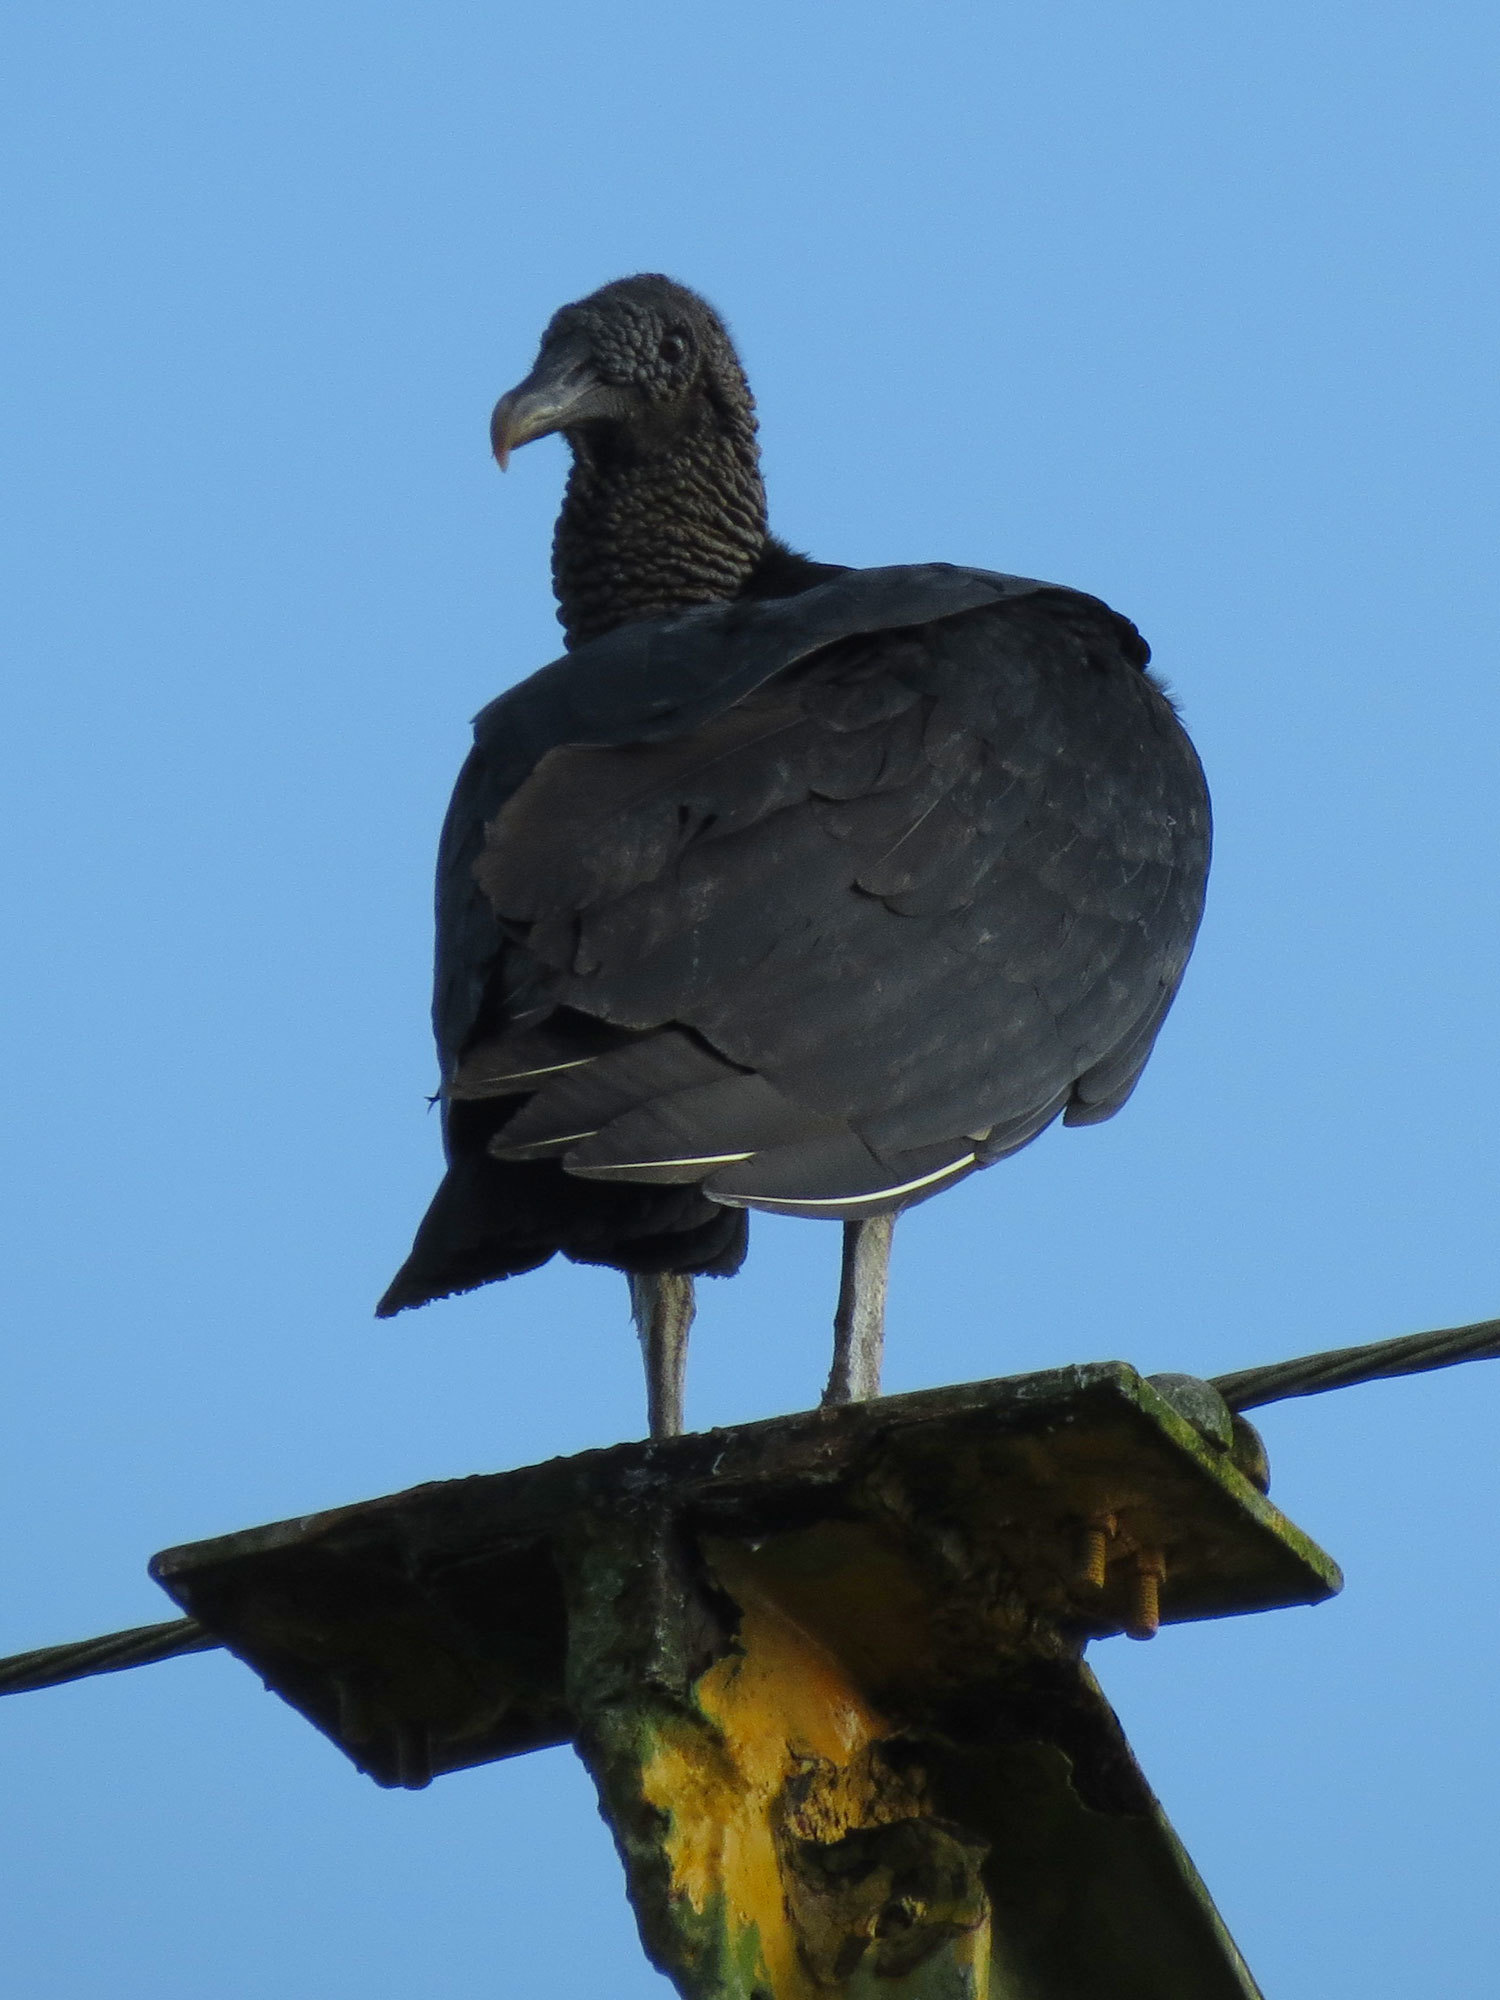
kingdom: Animalia
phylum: Chordata
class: Aves
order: Accipitriformes
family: Cathartidae
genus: Coragyps
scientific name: Coragyps atratus
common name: Black vulture
